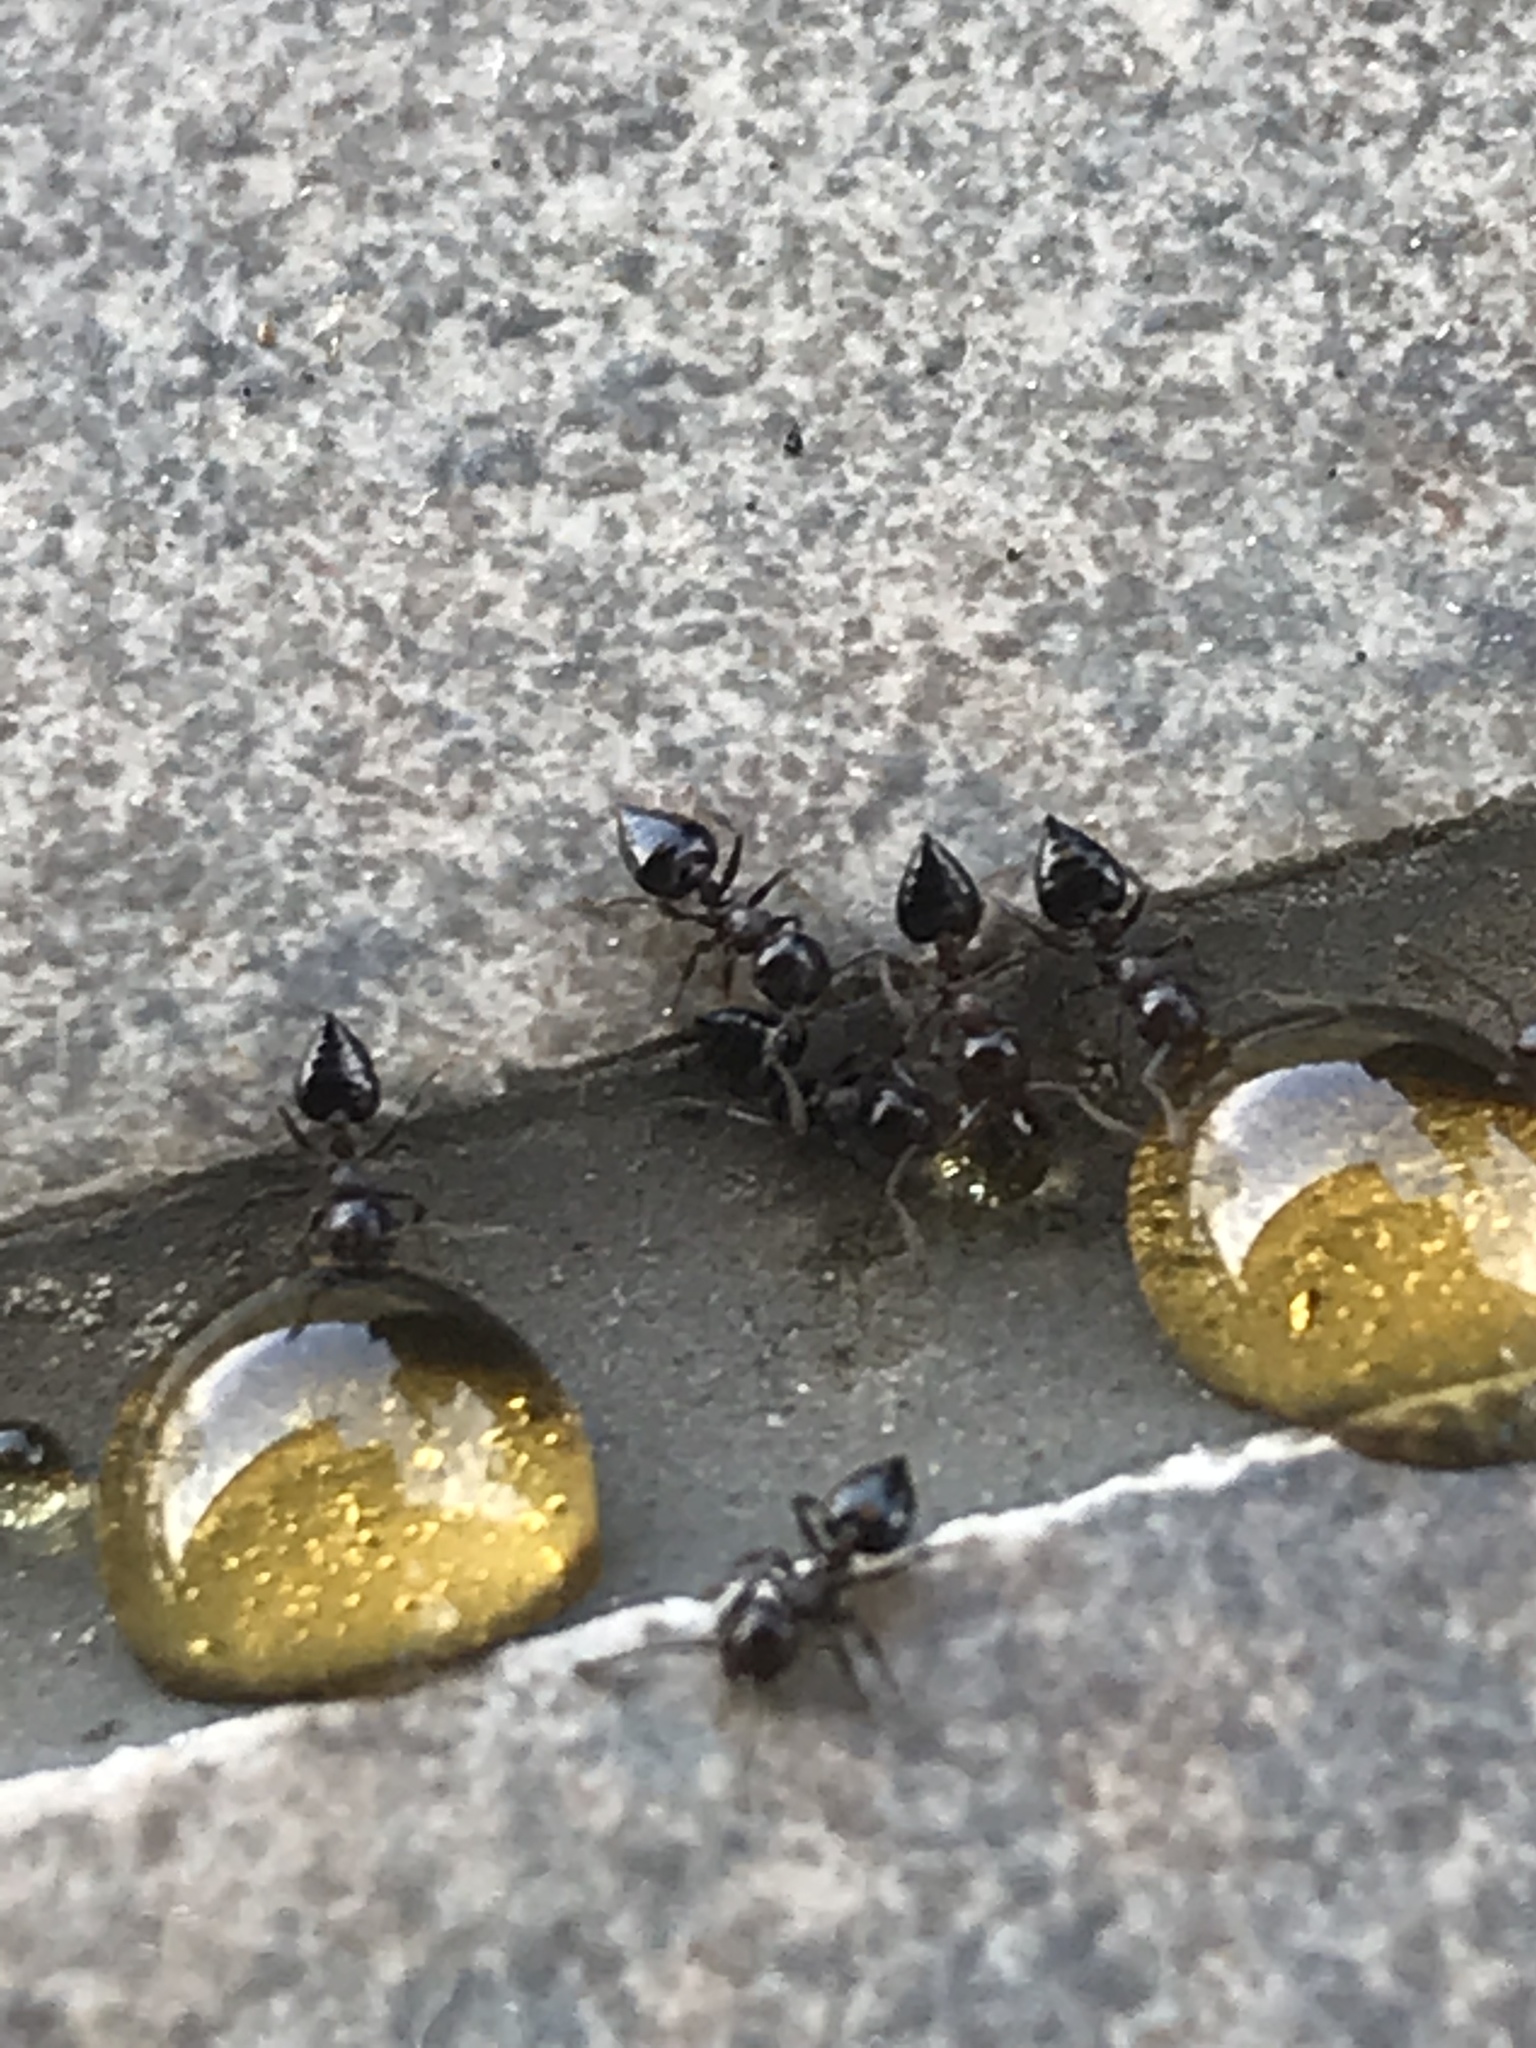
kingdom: Animalia
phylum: Arthropoda
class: Insecta
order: Hymenoptera
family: Formicidae
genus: Crematogaster
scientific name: Crematogaster
